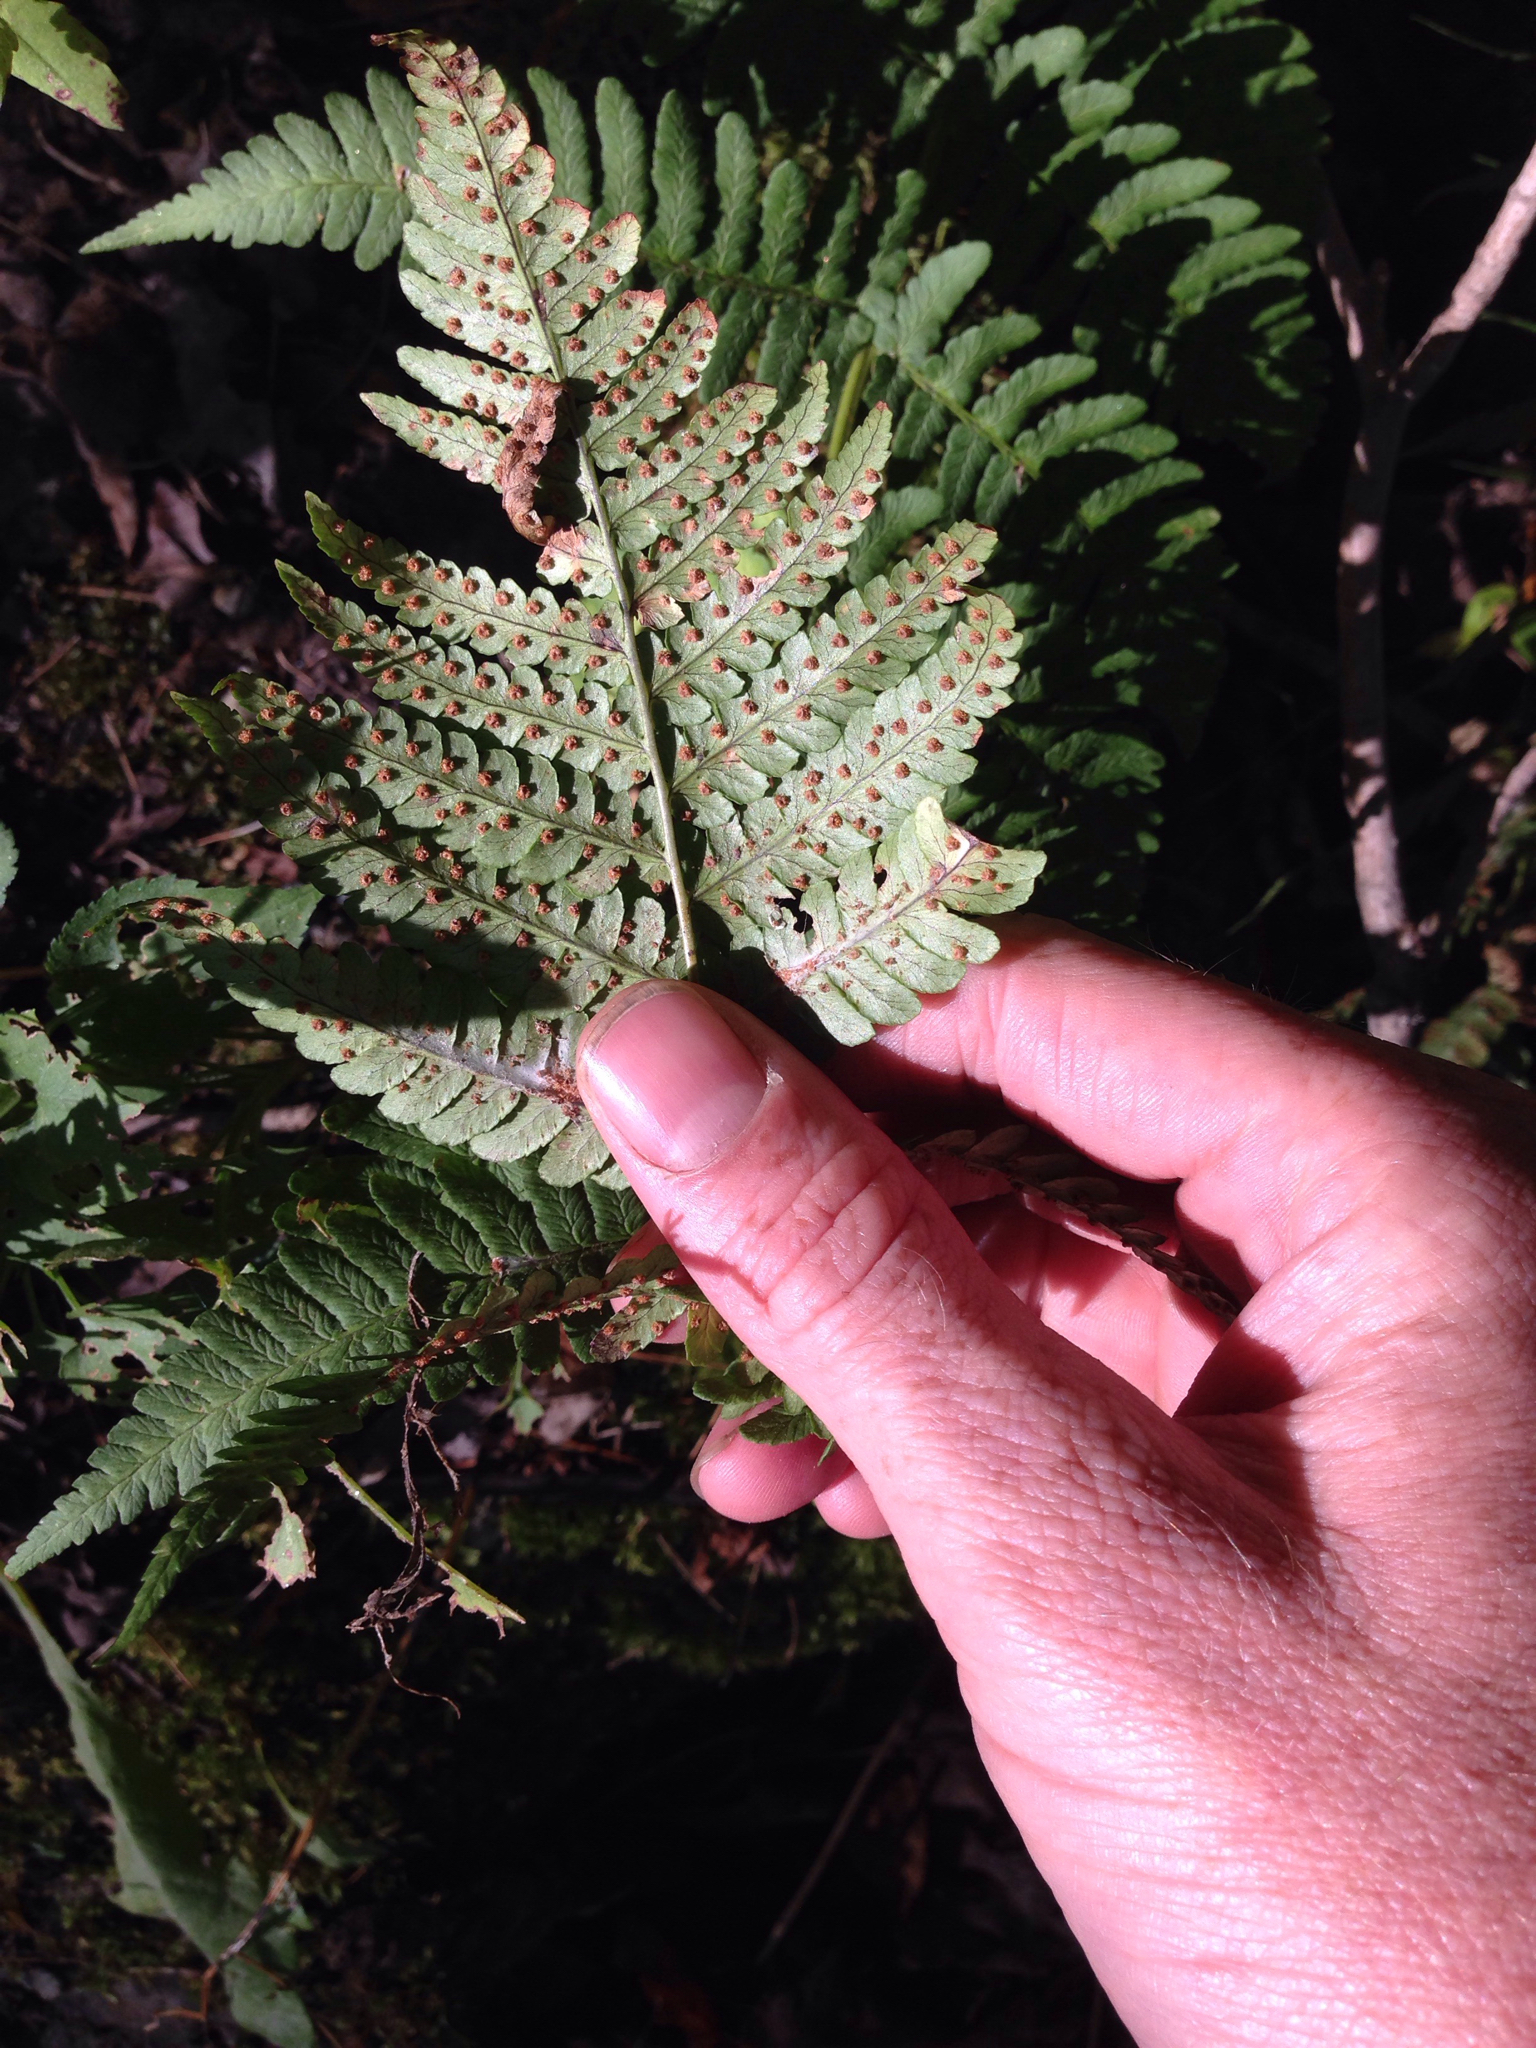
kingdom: Plantae
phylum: Tracheophyta
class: Polypodiopsida
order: Polypodiales
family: Dryopteridaceae
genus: Dryopteris
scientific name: Dryopteris marginalis
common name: Marginal wood fern
